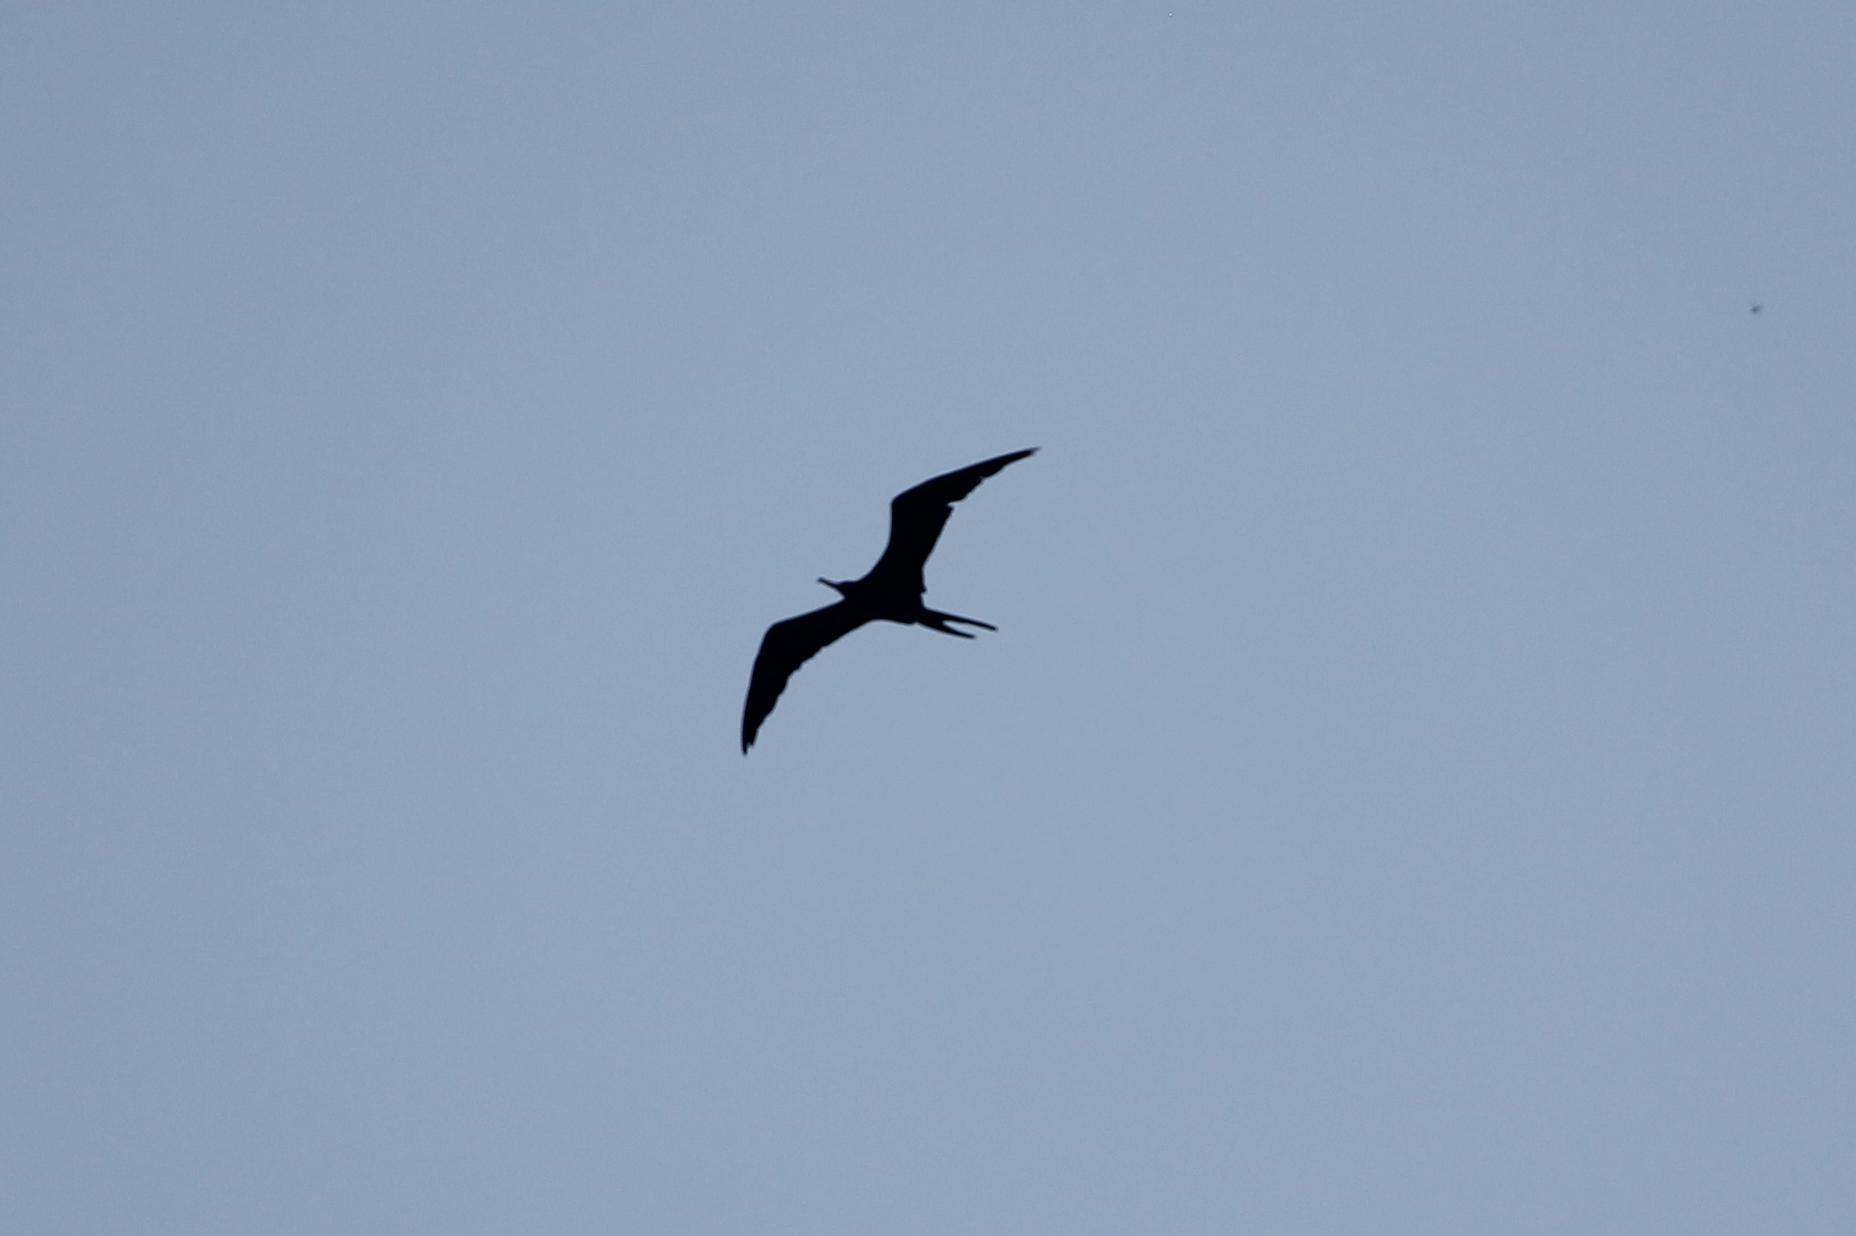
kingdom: Animalia
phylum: Chordata
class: Aves
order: Suliformes
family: Fregatidae
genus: Fregata
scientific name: Fregata magnificens
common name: Magnificent frigatebird
